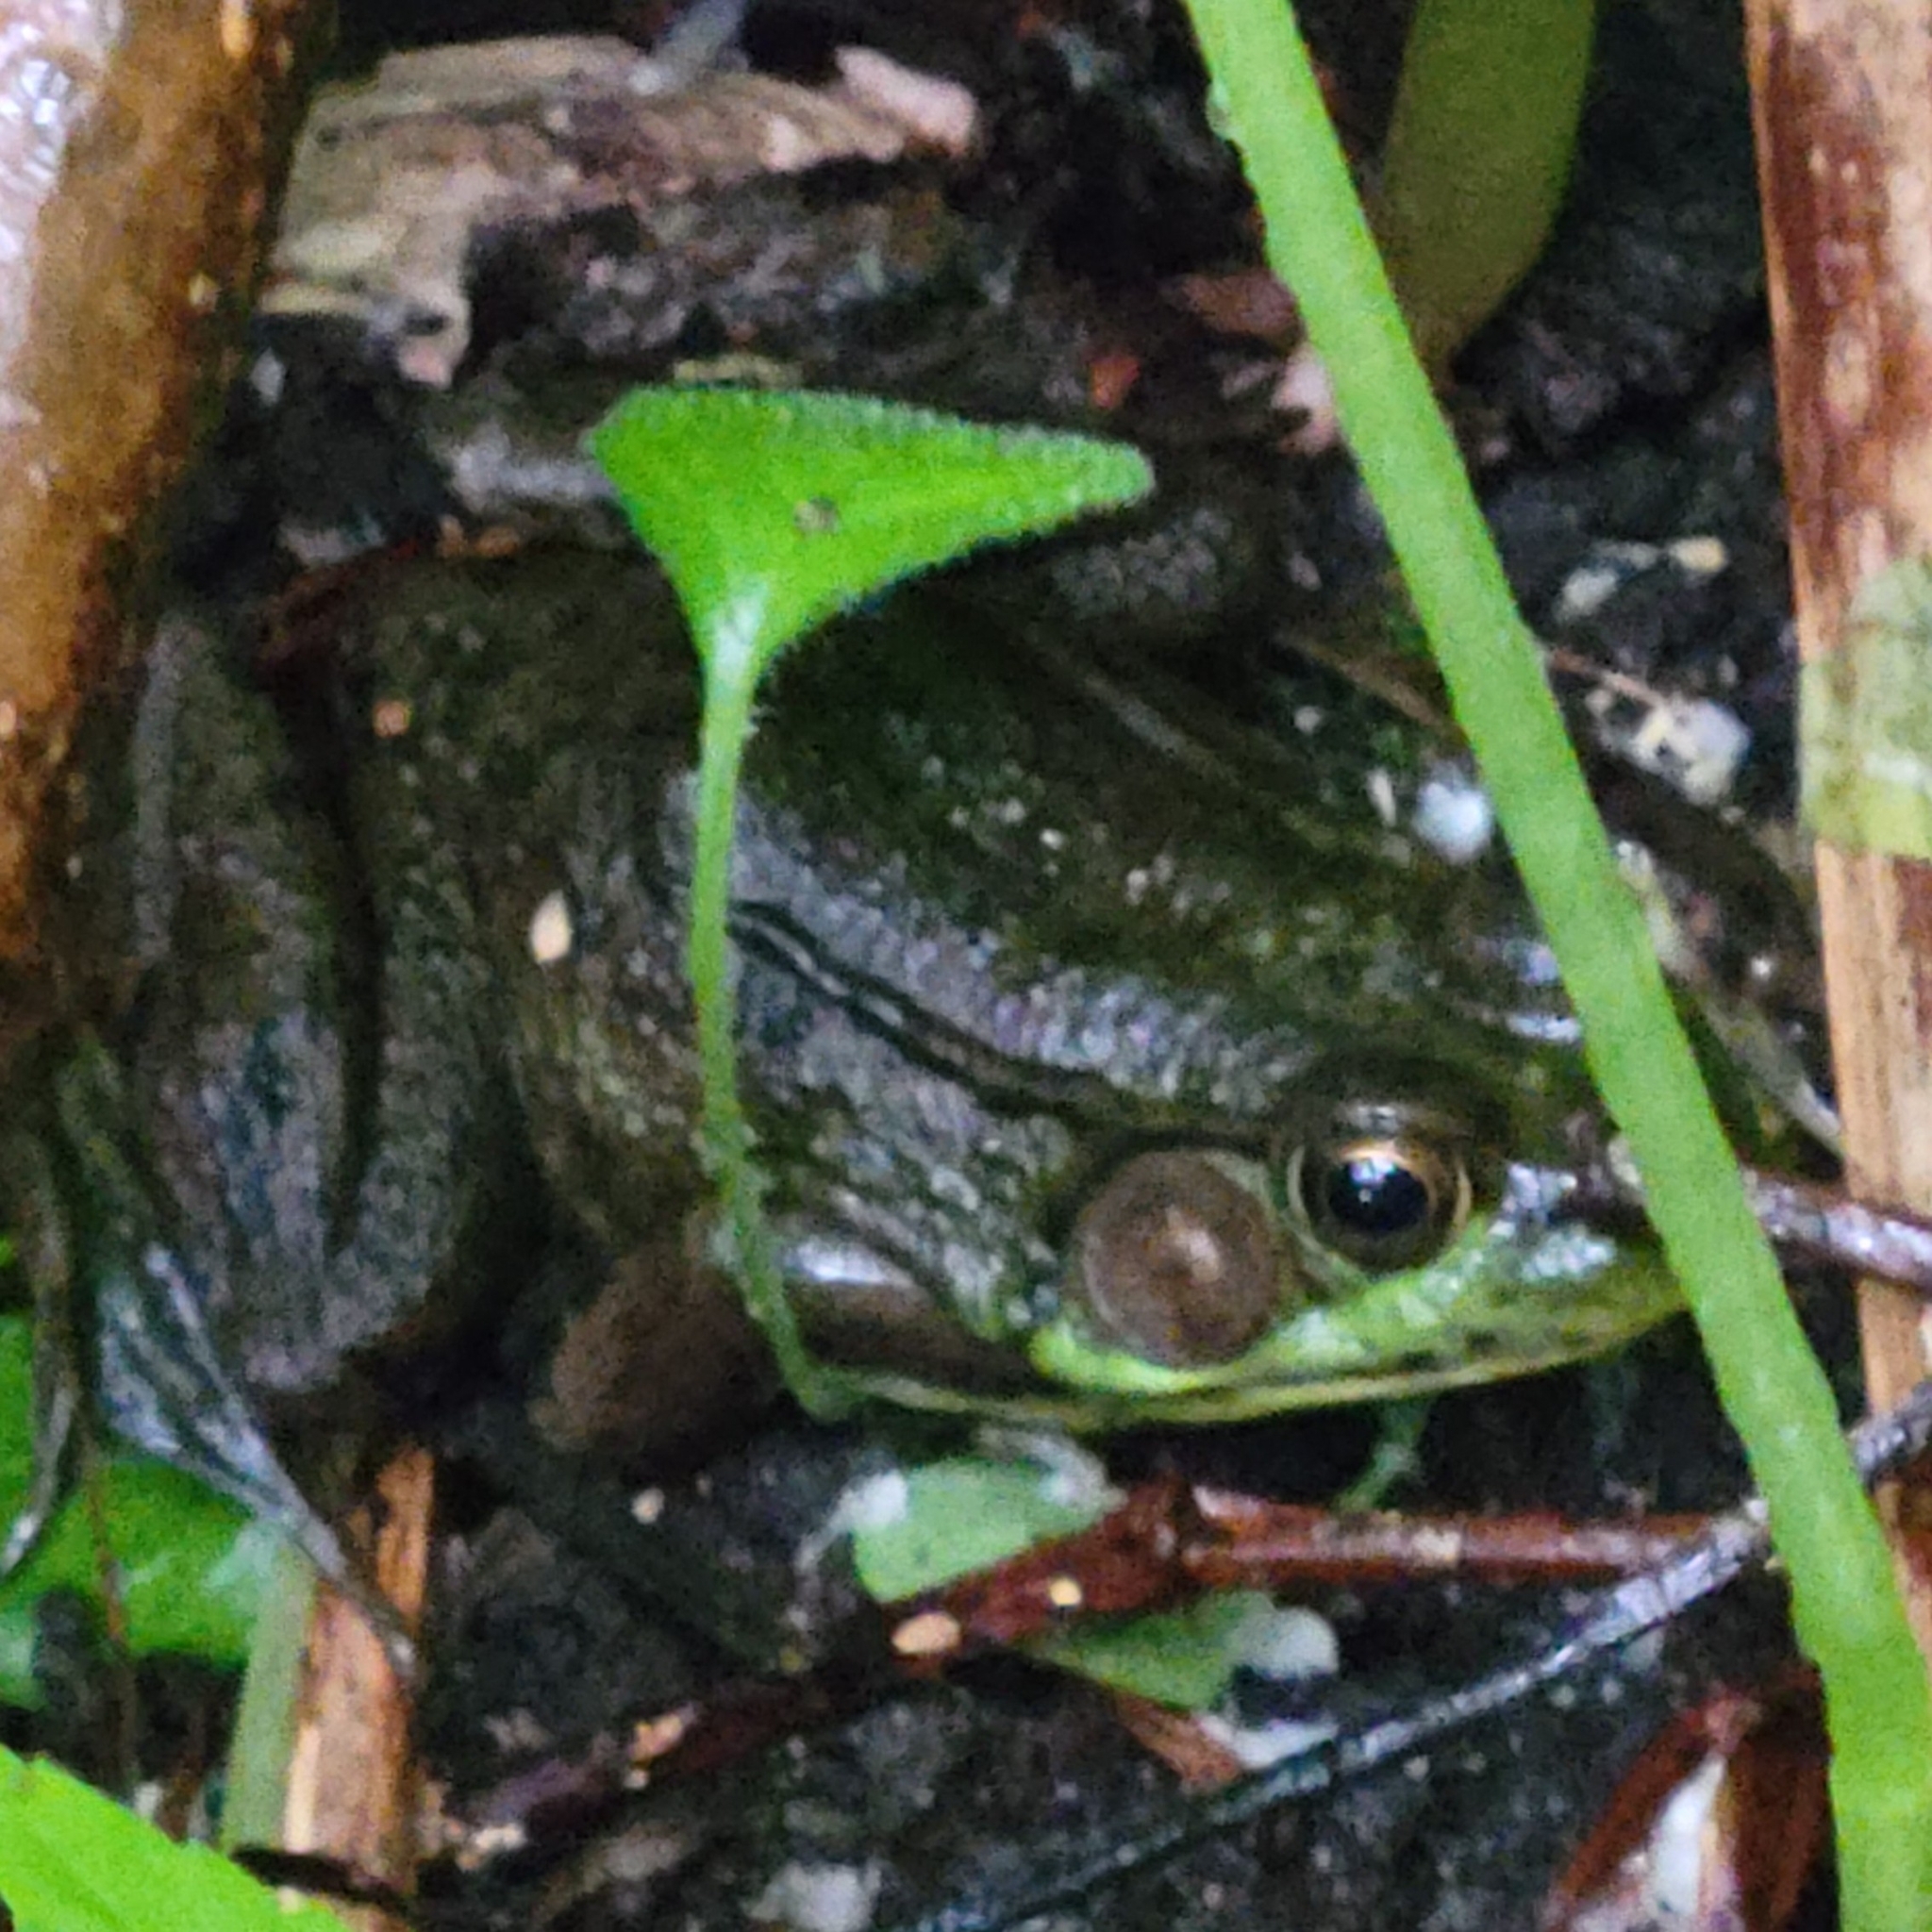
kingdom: Animalia
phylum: Chordata
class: Amphibia
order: Anura
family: Ranidae
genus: Lithobates
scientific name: Lithobates clamitans
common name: Green frog
